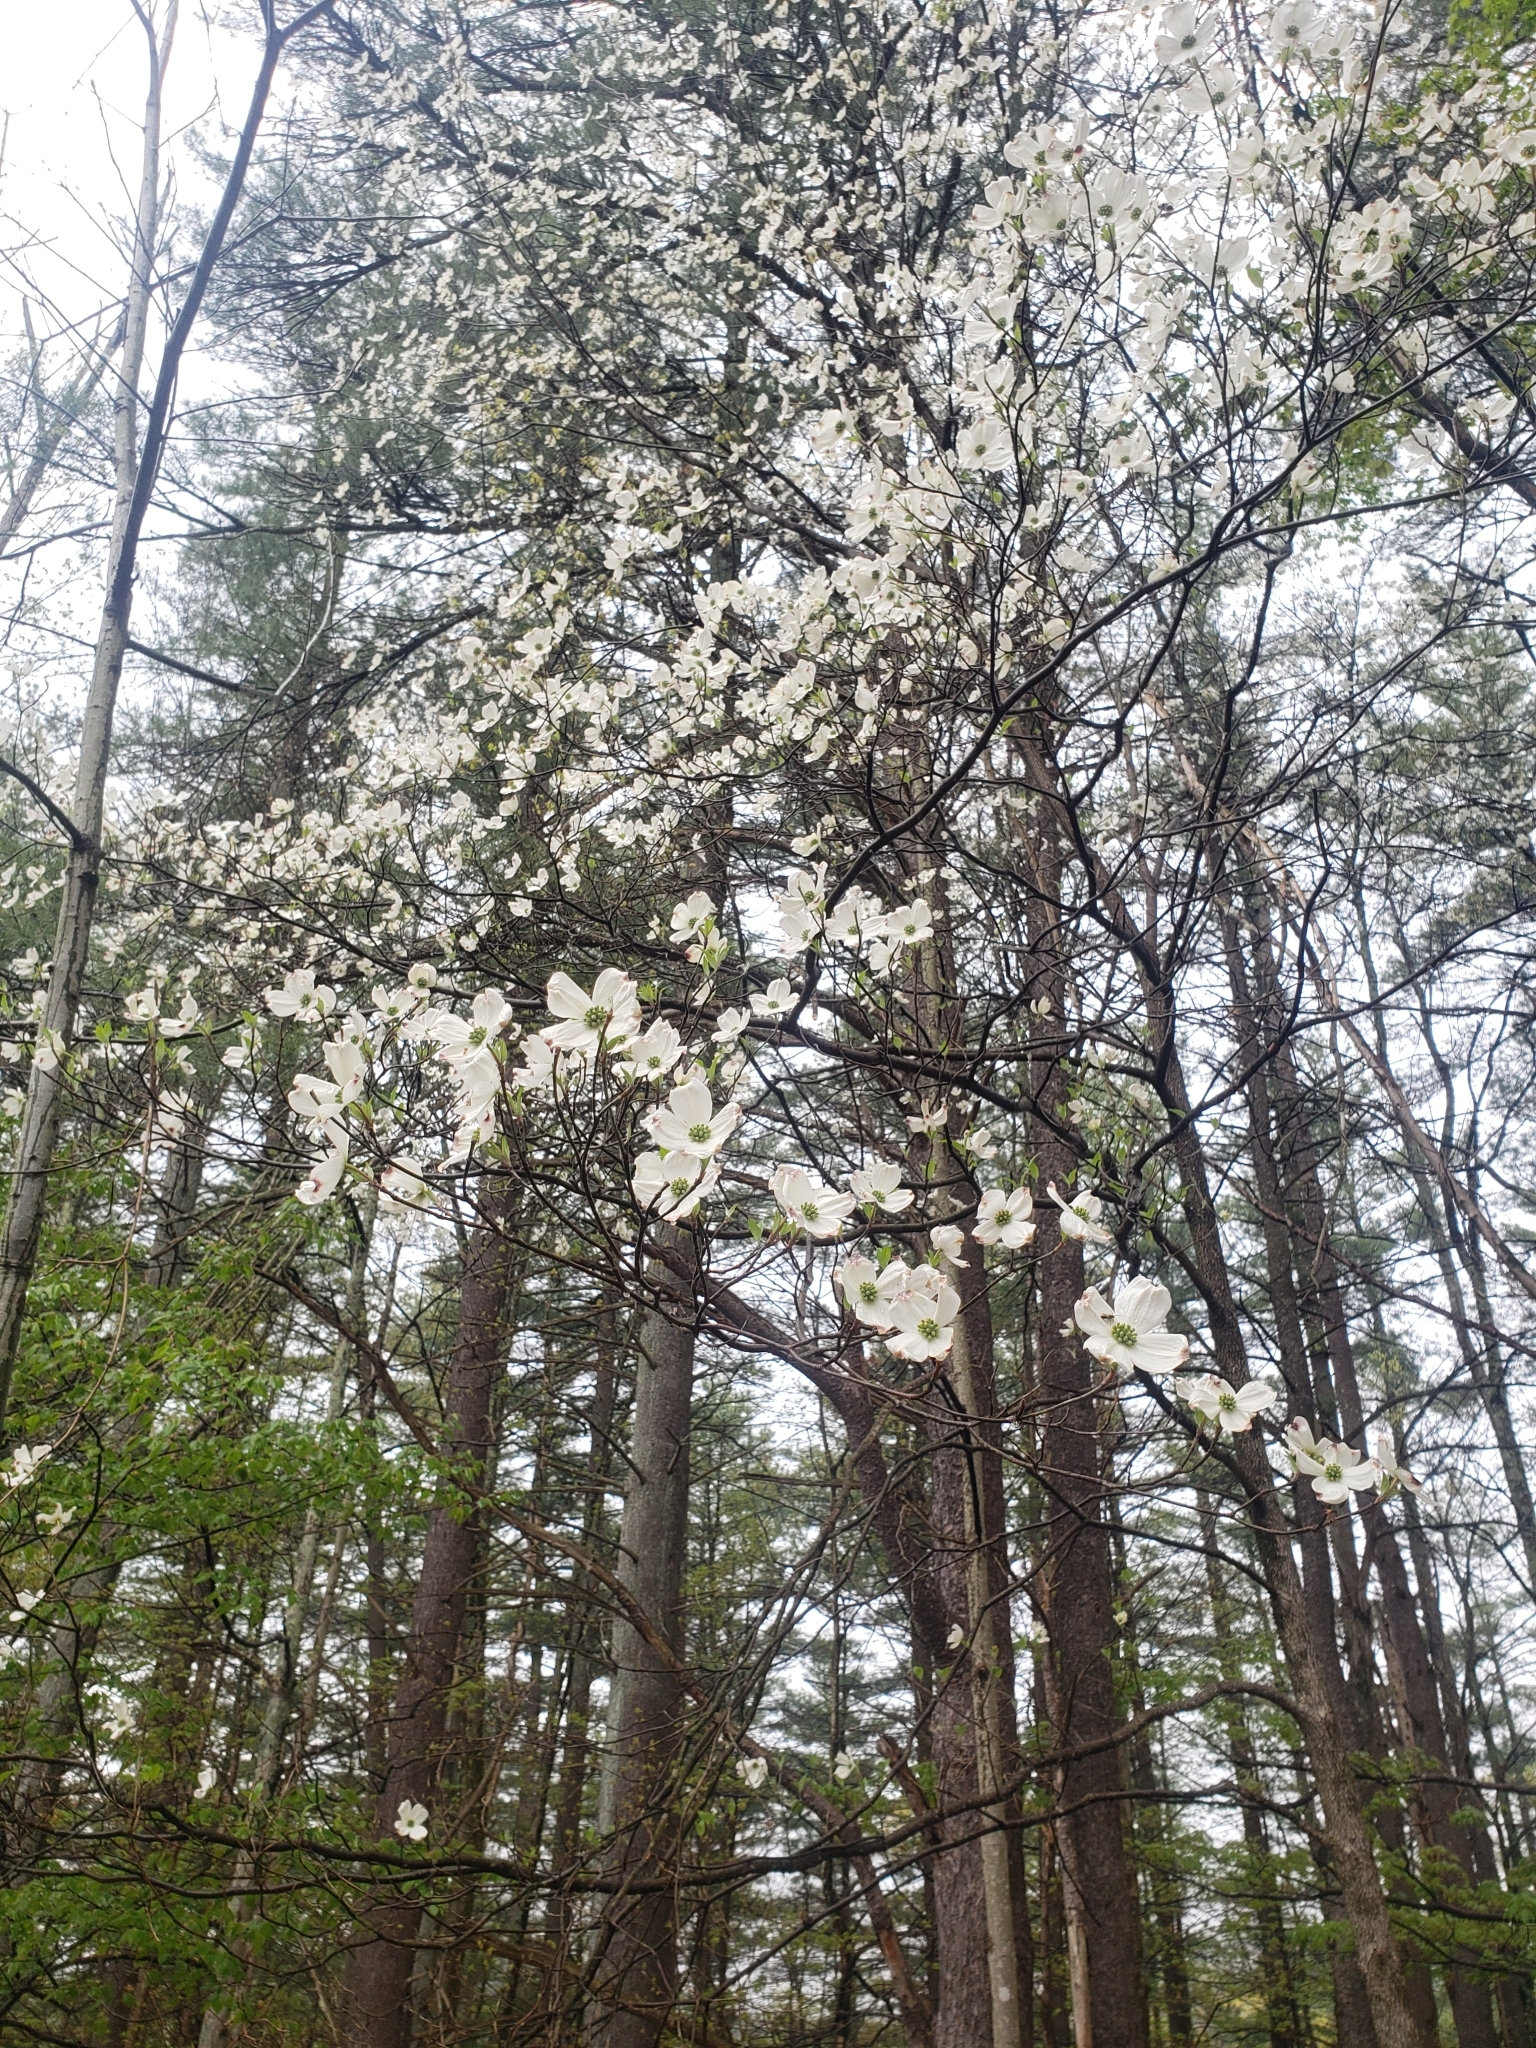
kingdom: Plantae
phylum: Tracheophyta
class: Magnoliopsida
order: Cornales
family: Cornaceae
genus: Cornus
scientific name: Cornus florida
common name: Flowering dogwood
